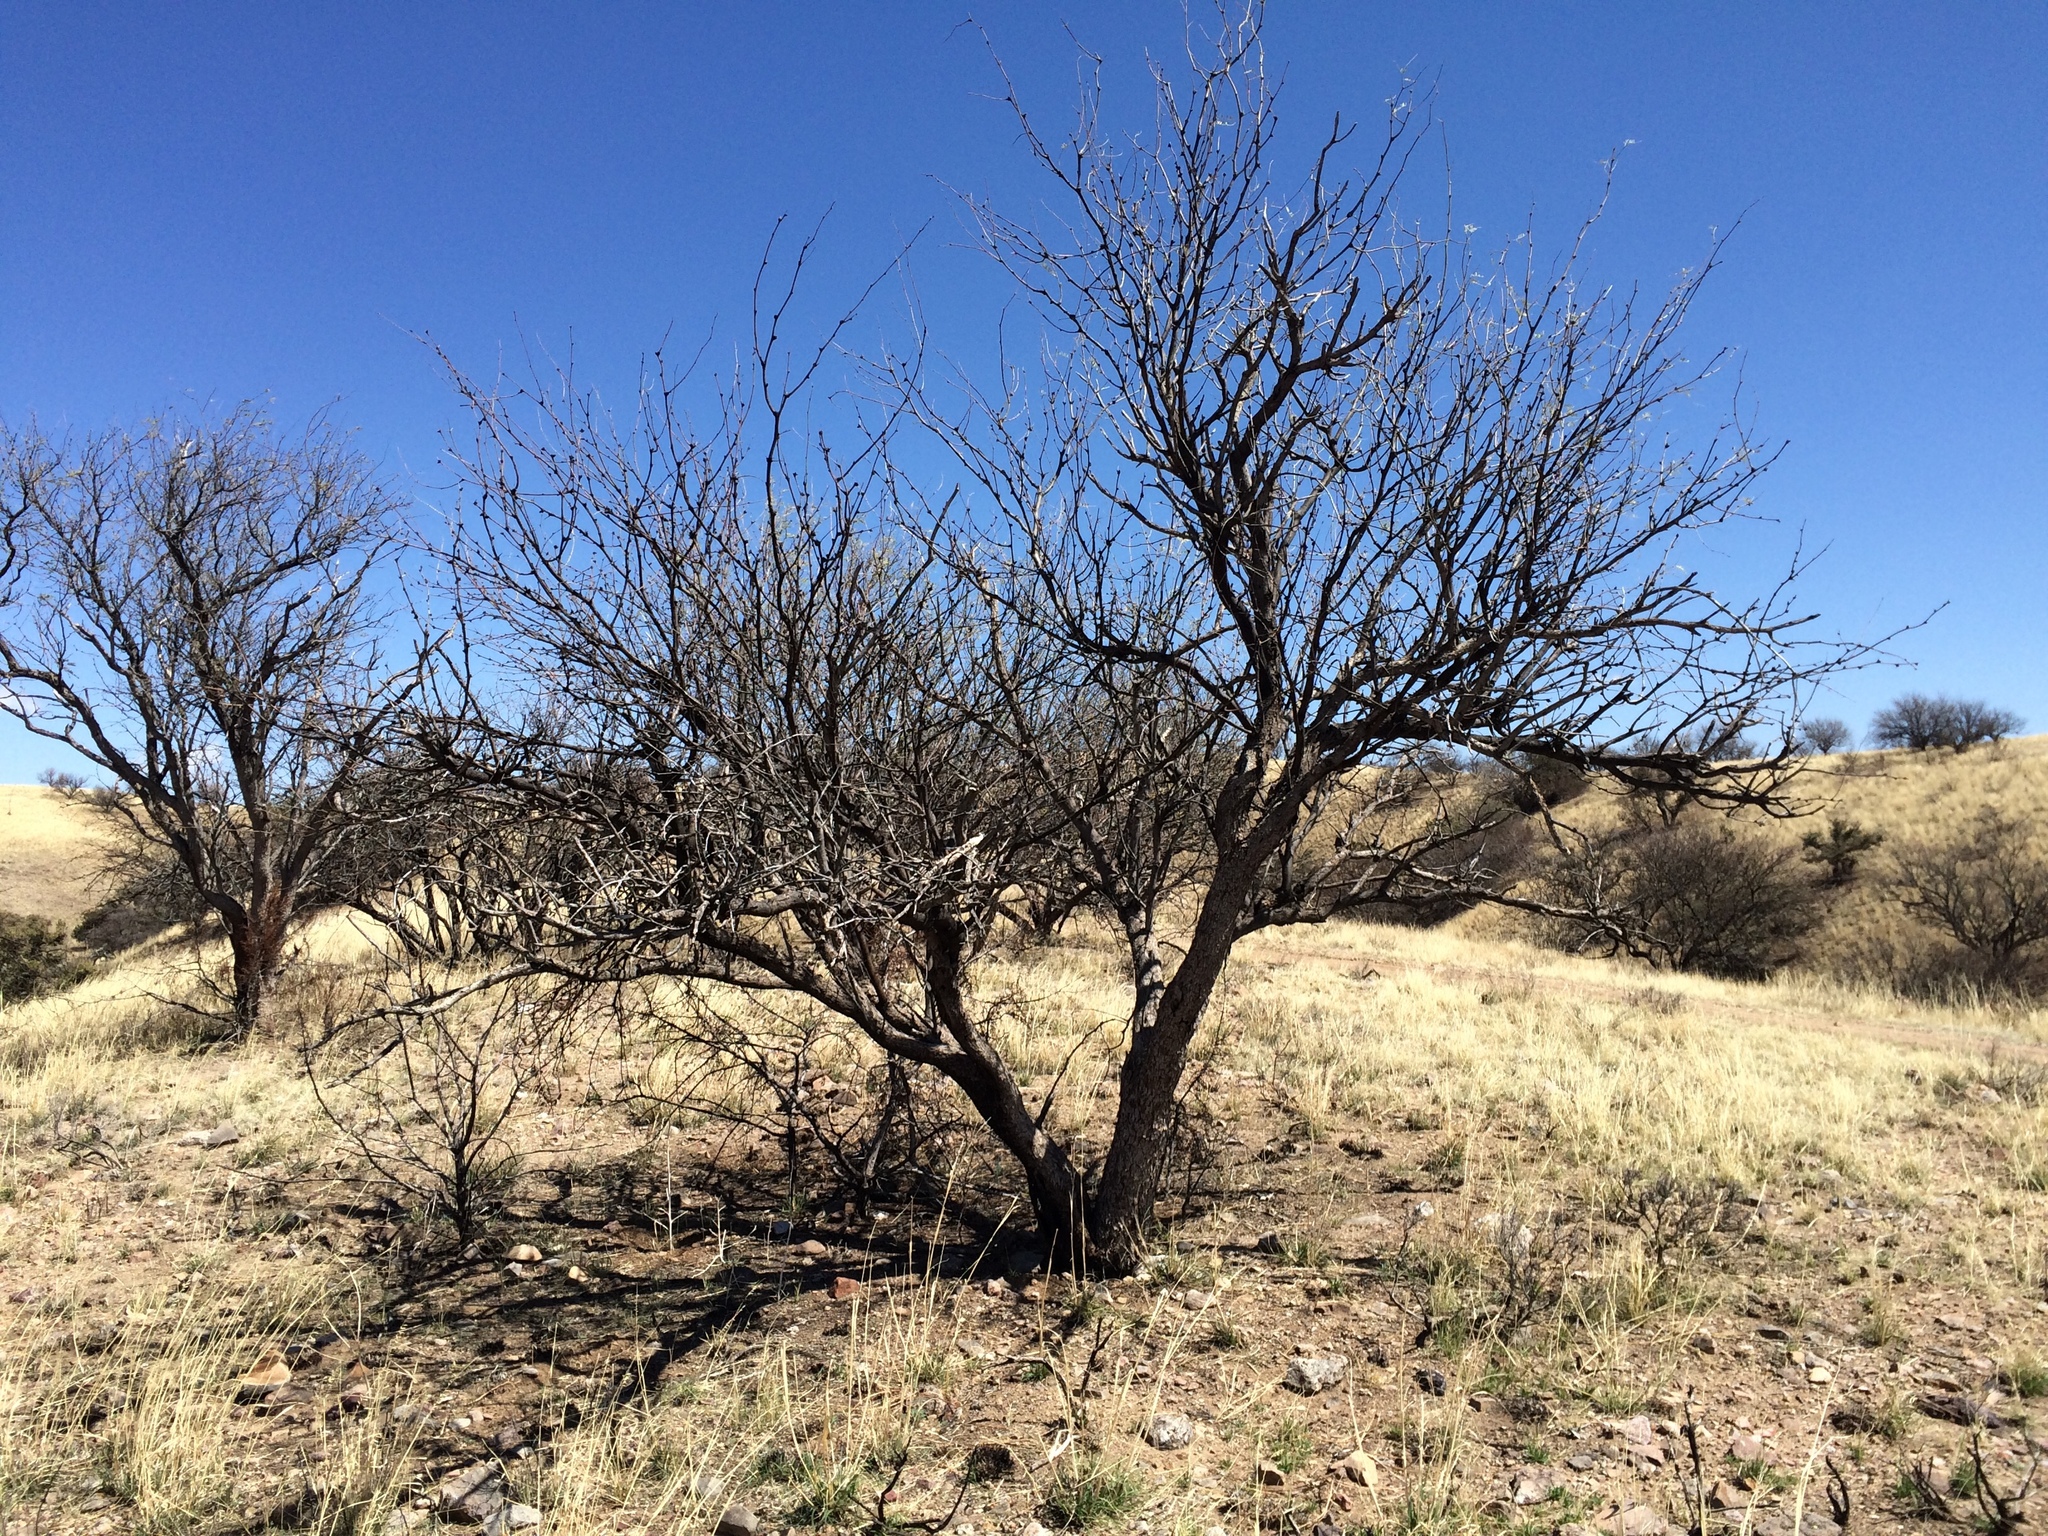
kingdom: Plantae
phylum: Tracheophyta
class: Magnoliopsida
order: Fabales
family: Fabaceae
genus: Prosopis
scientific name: Prosopis velutina
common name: Velvet mesquite
